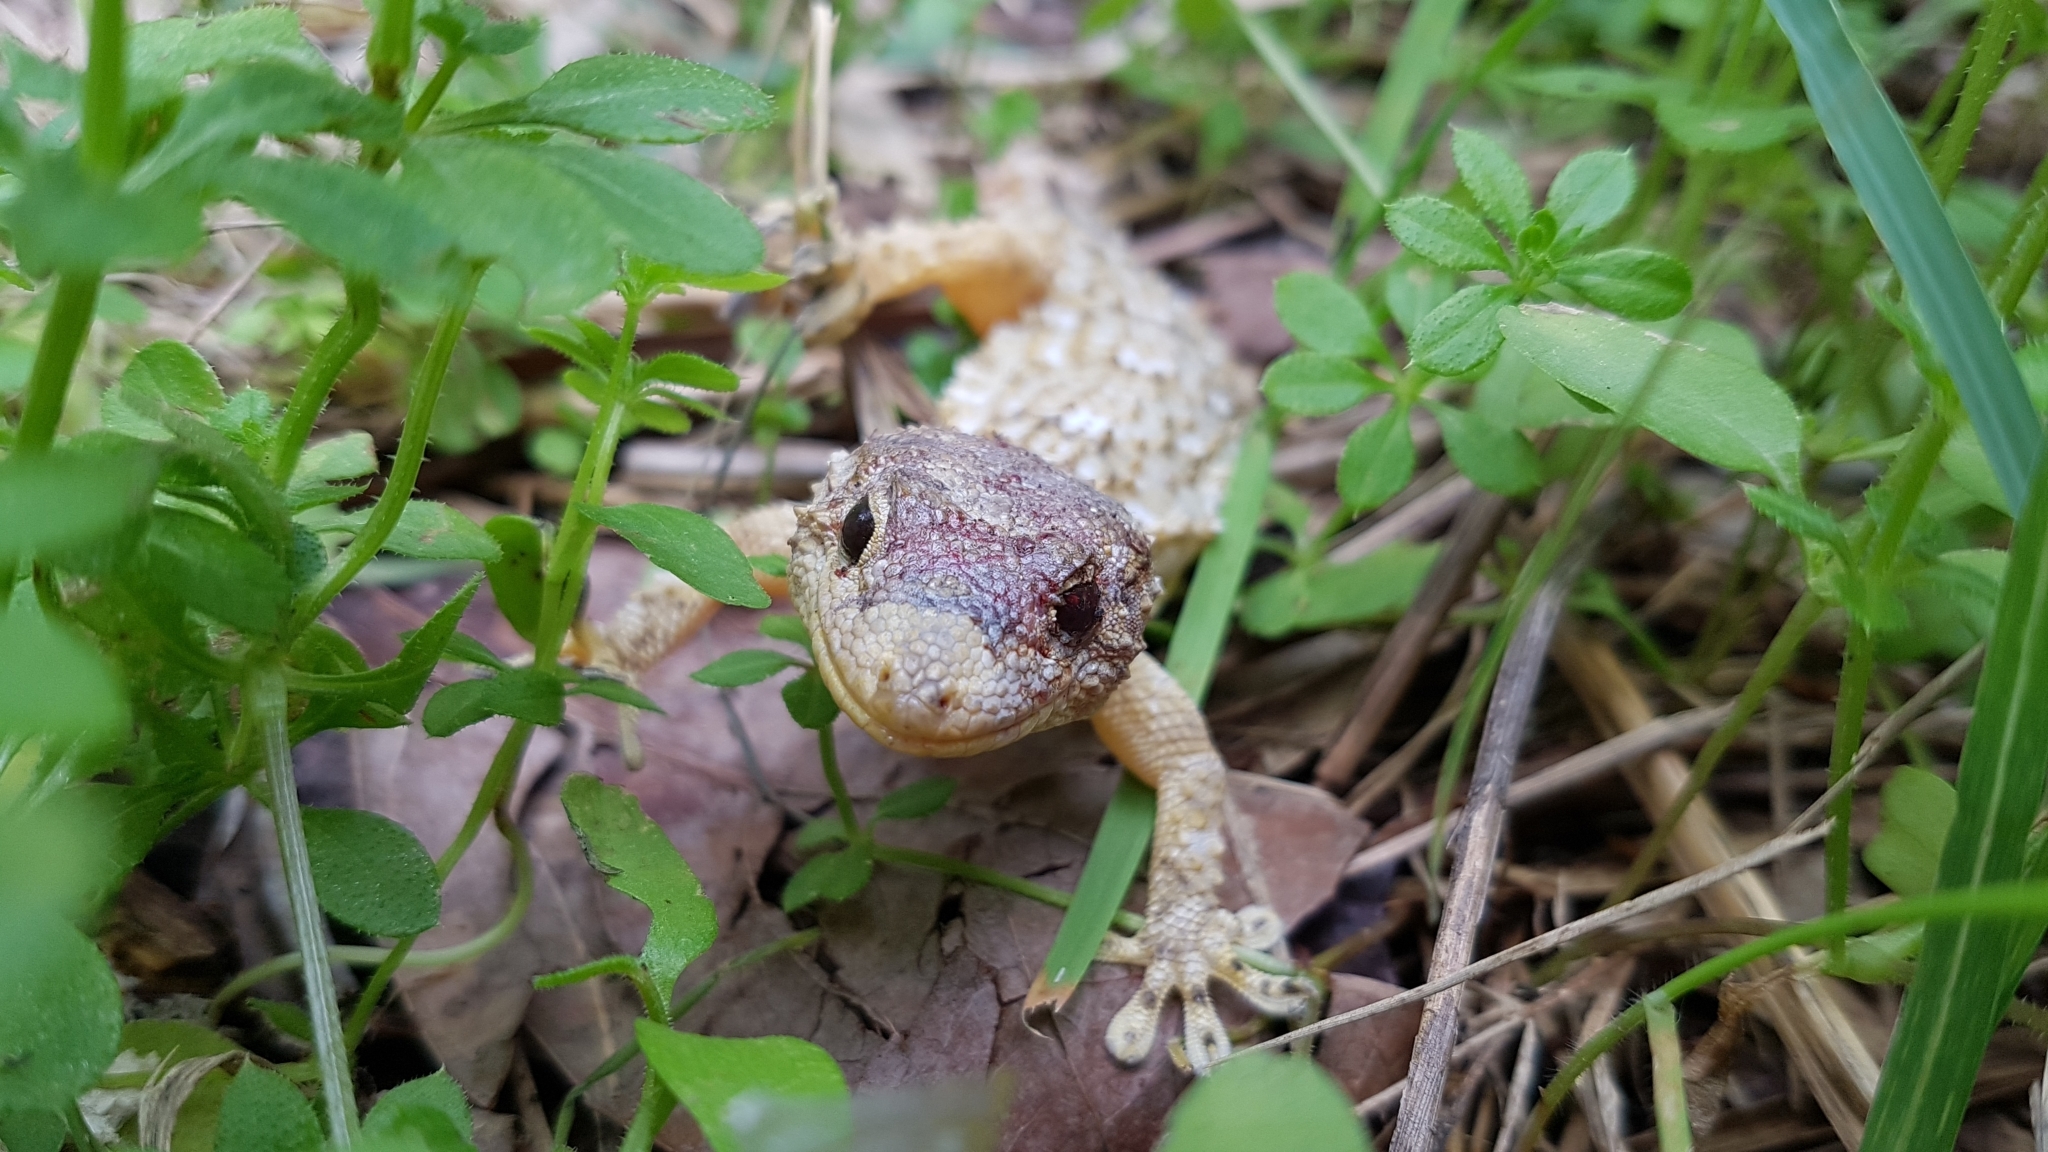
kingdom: Animalia
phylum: Chordata
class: Squamata
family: Phyllodactylidae
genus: Tarentola
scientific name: Tarentola mauritanica
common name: Moorish gecko
